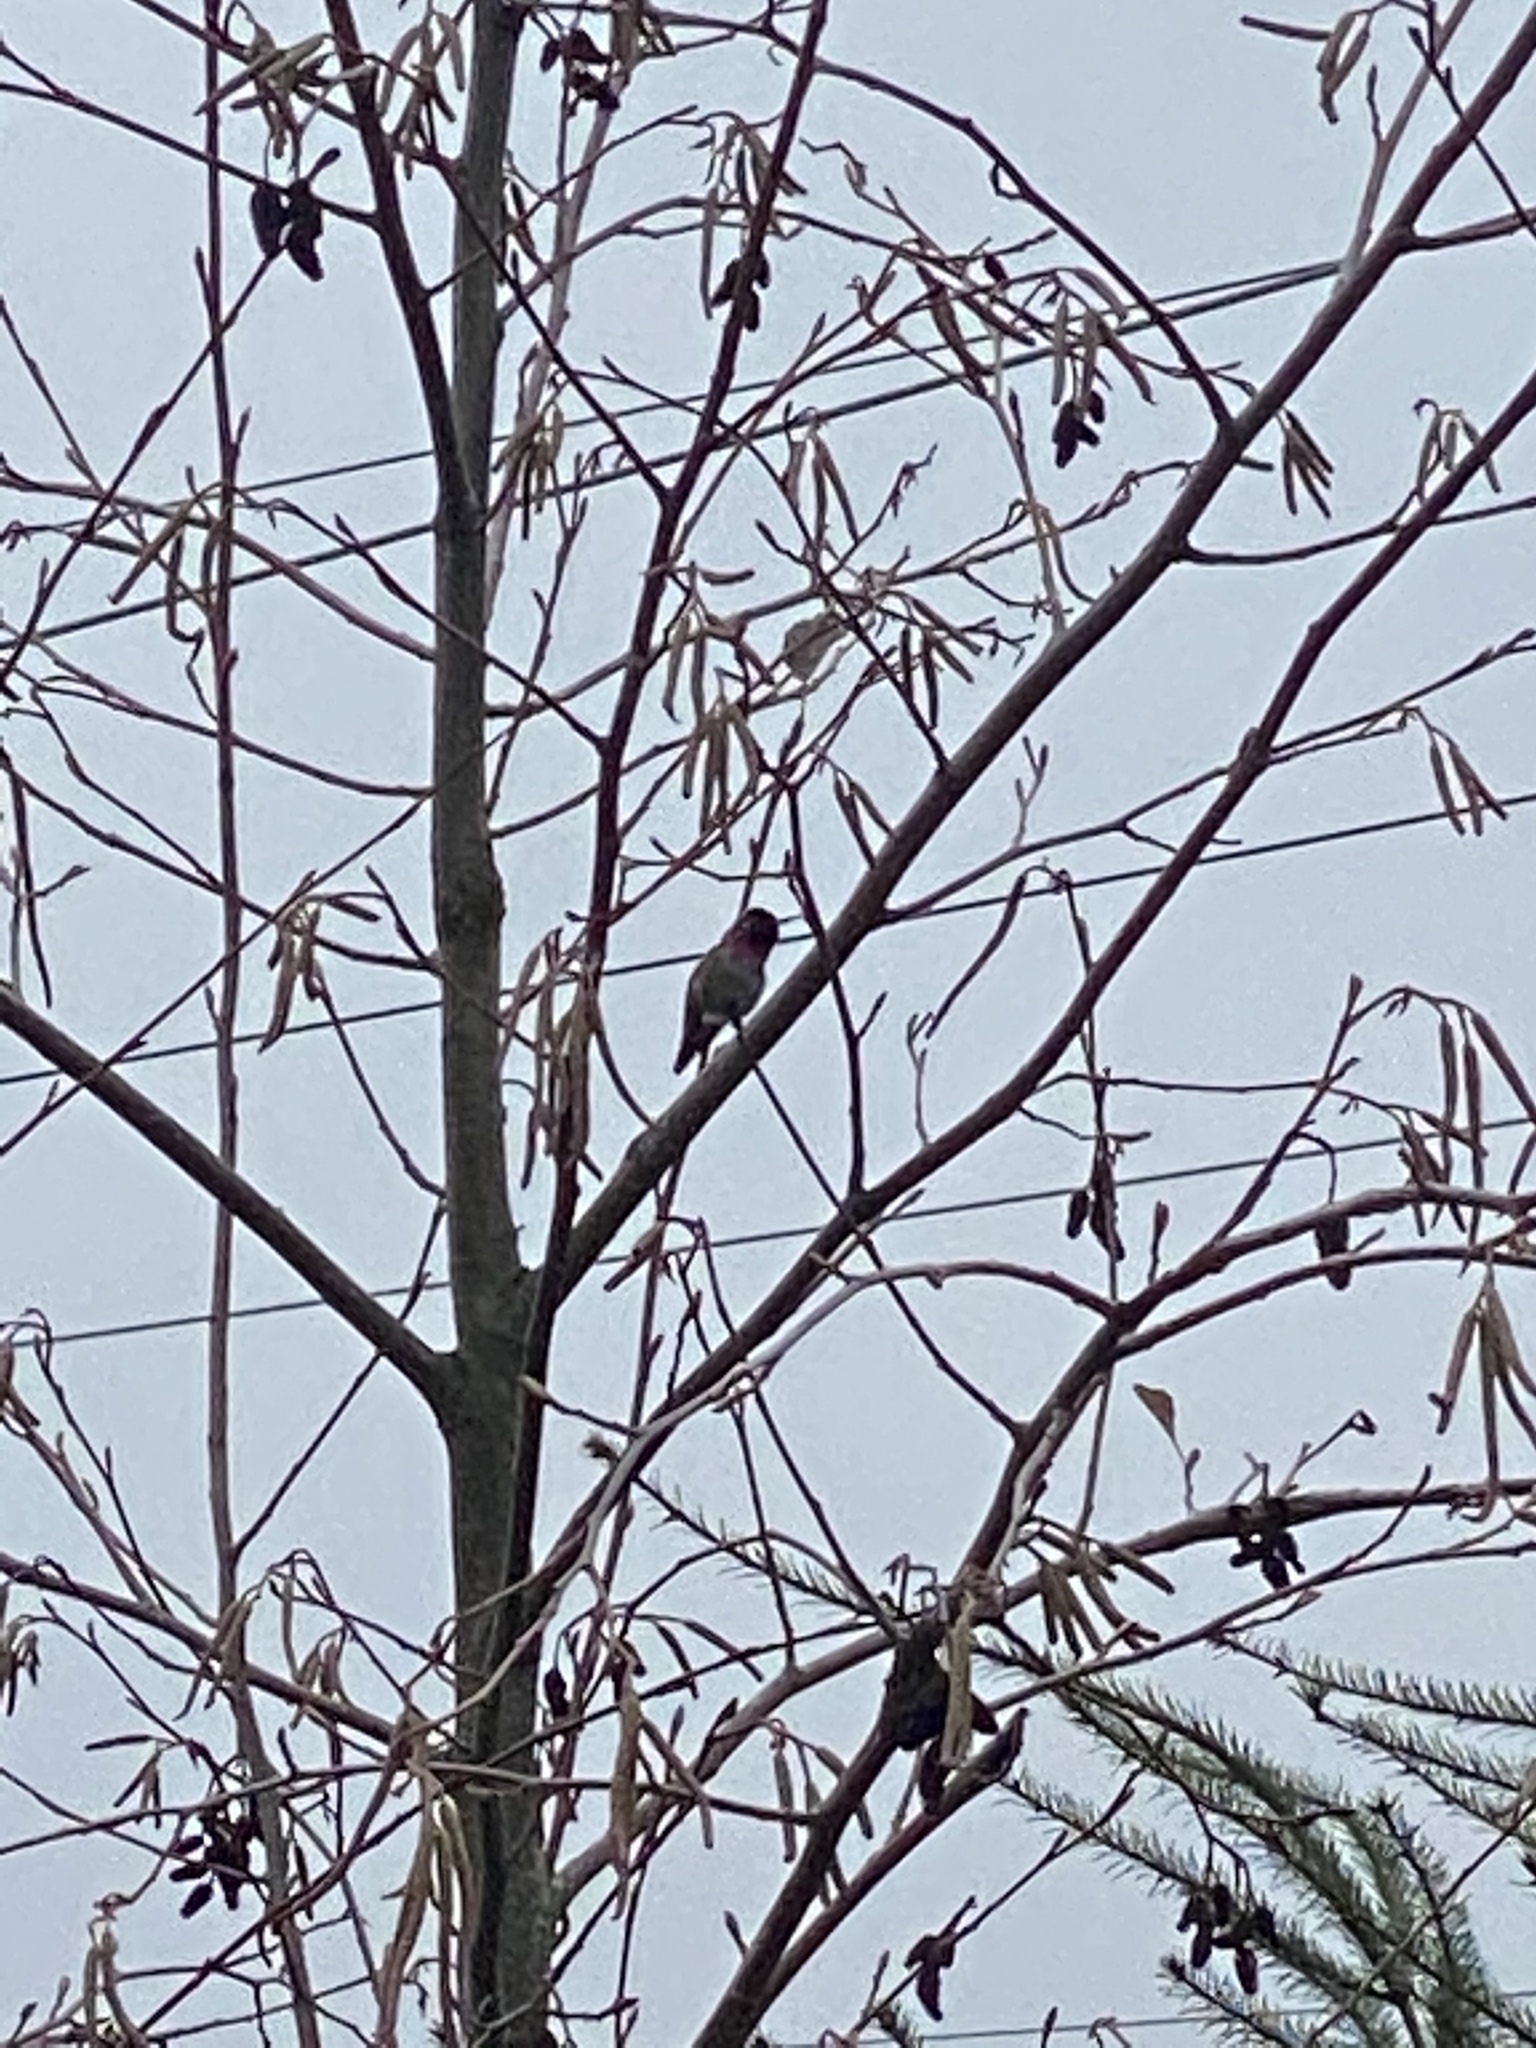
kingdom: Animalia
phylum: Chordata
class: Aves
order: Apodiformes
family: Trochilidae
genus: Calypte
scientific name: Calypte anna
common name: Anna's hummingbird
